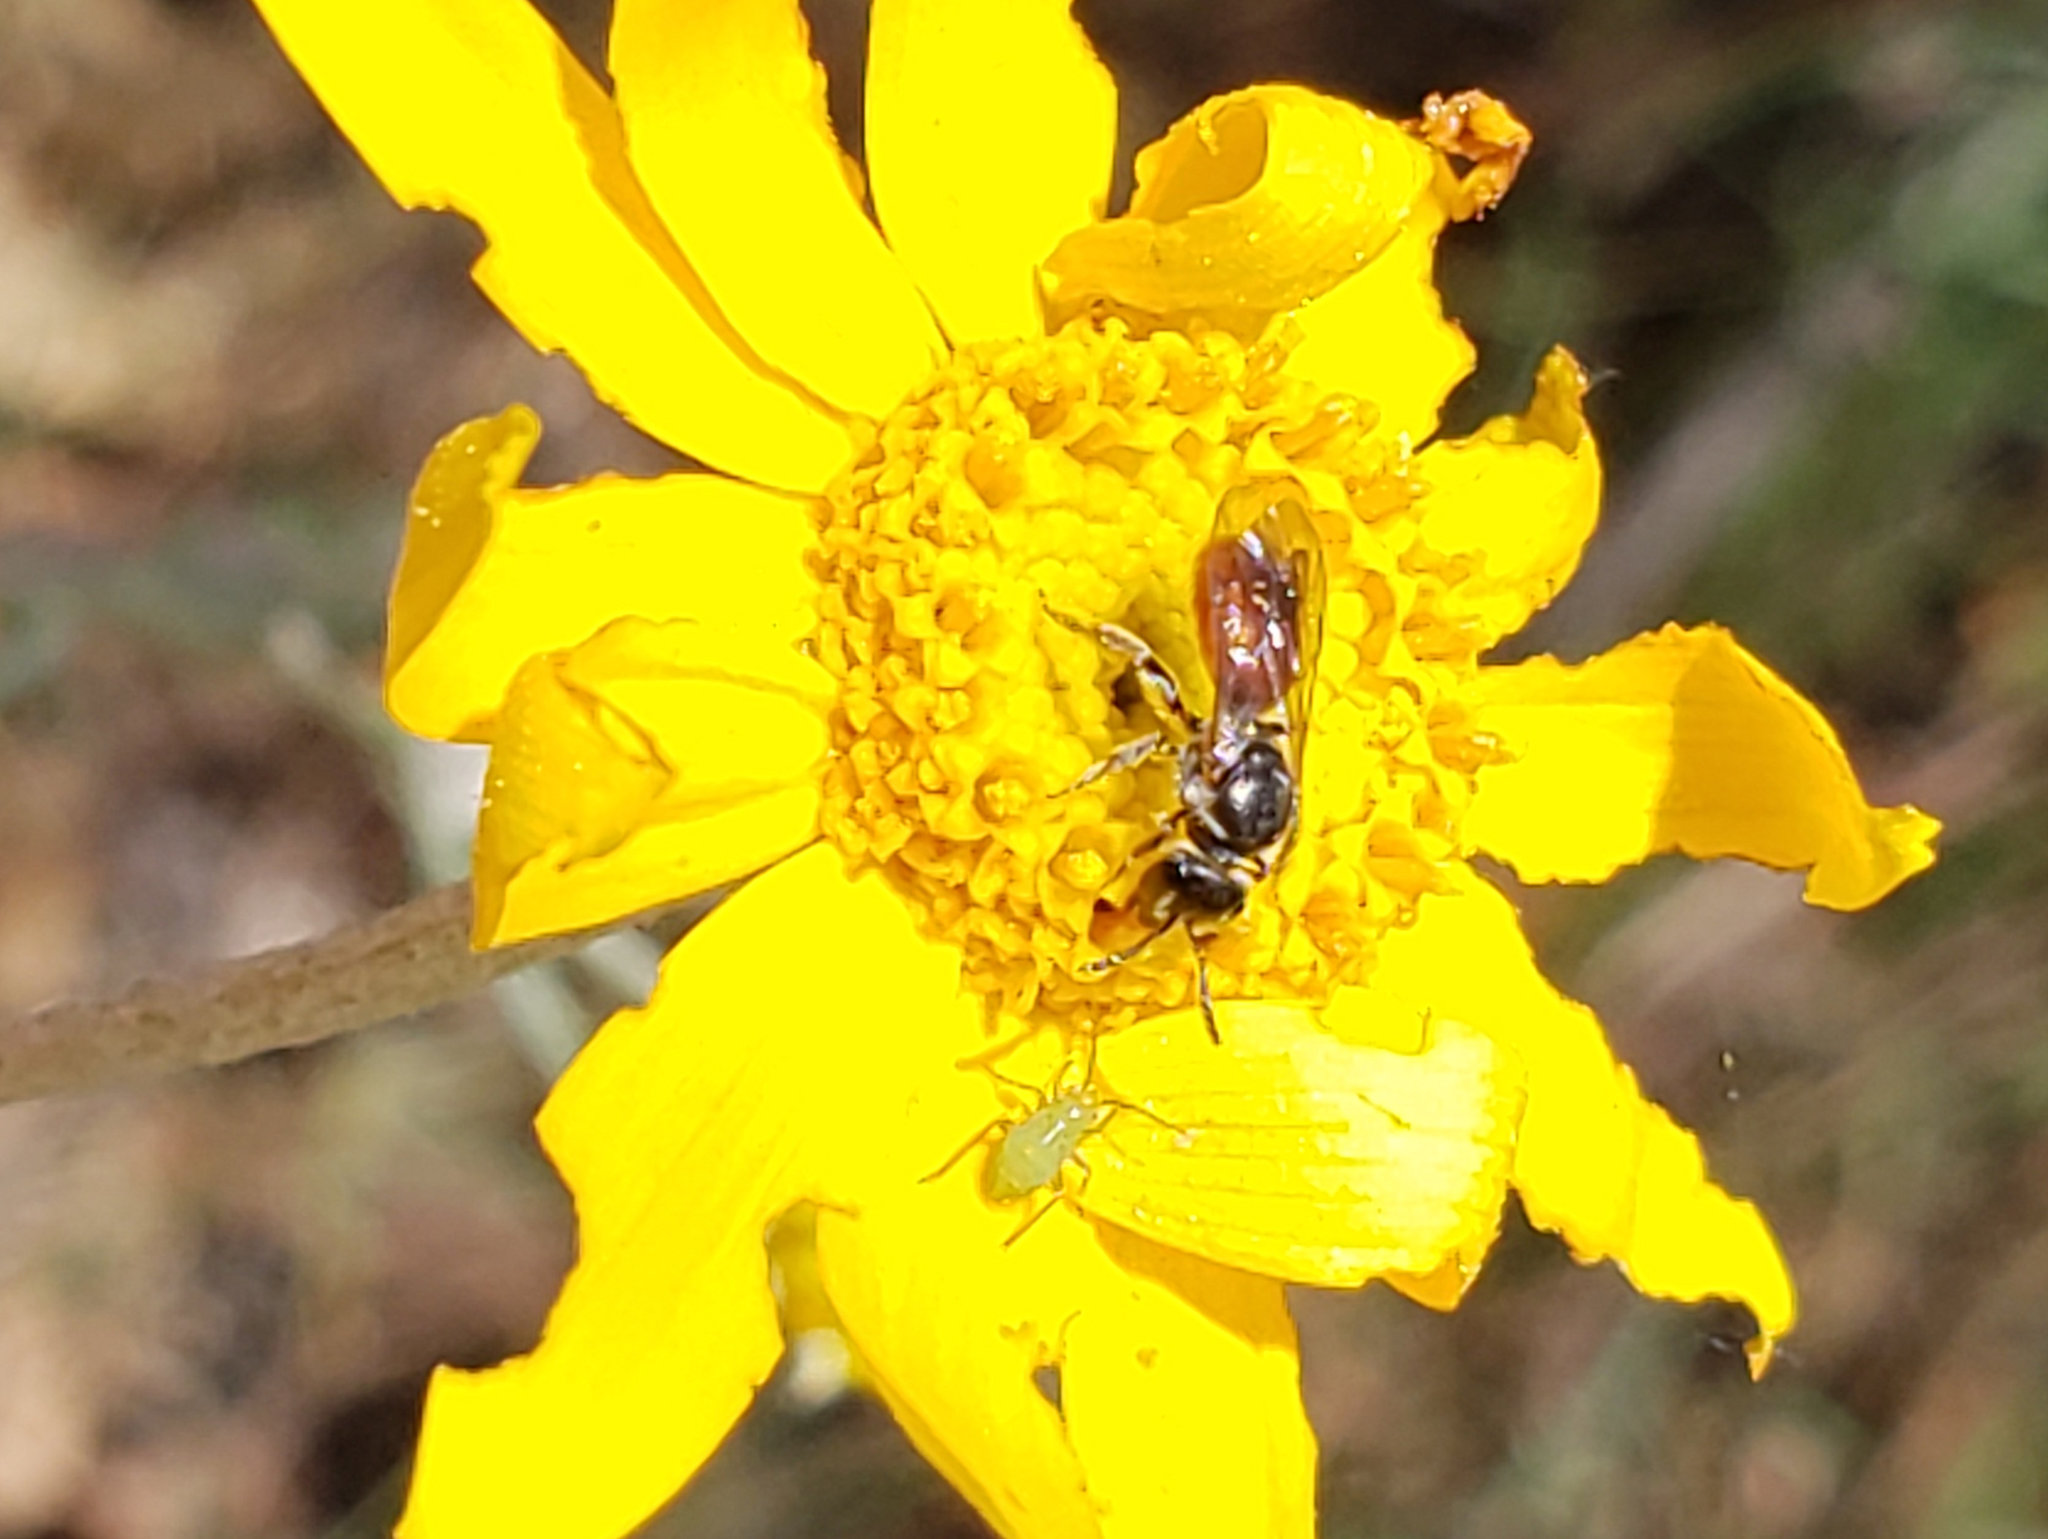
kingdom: Animalia
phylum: Arthropoda
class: Insecta
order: Hymenoptera
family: Halictidae
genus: Lasioglossum
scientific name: Lasioglossum ovaliceps
